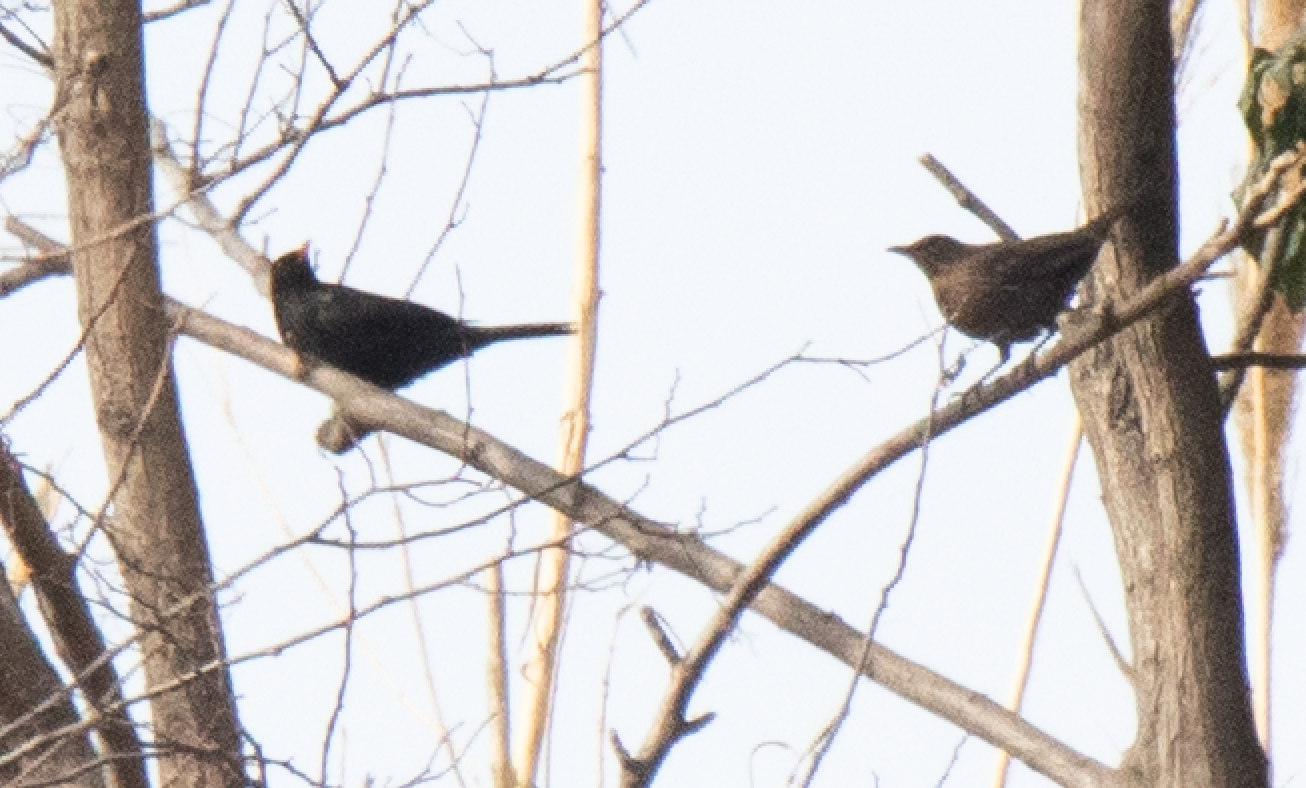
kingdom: Animalia
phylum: Chordata
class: Aves
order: Passeriformes
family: Turdidae
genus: Turdus
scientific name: Turdus merula
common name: Common blackbird
